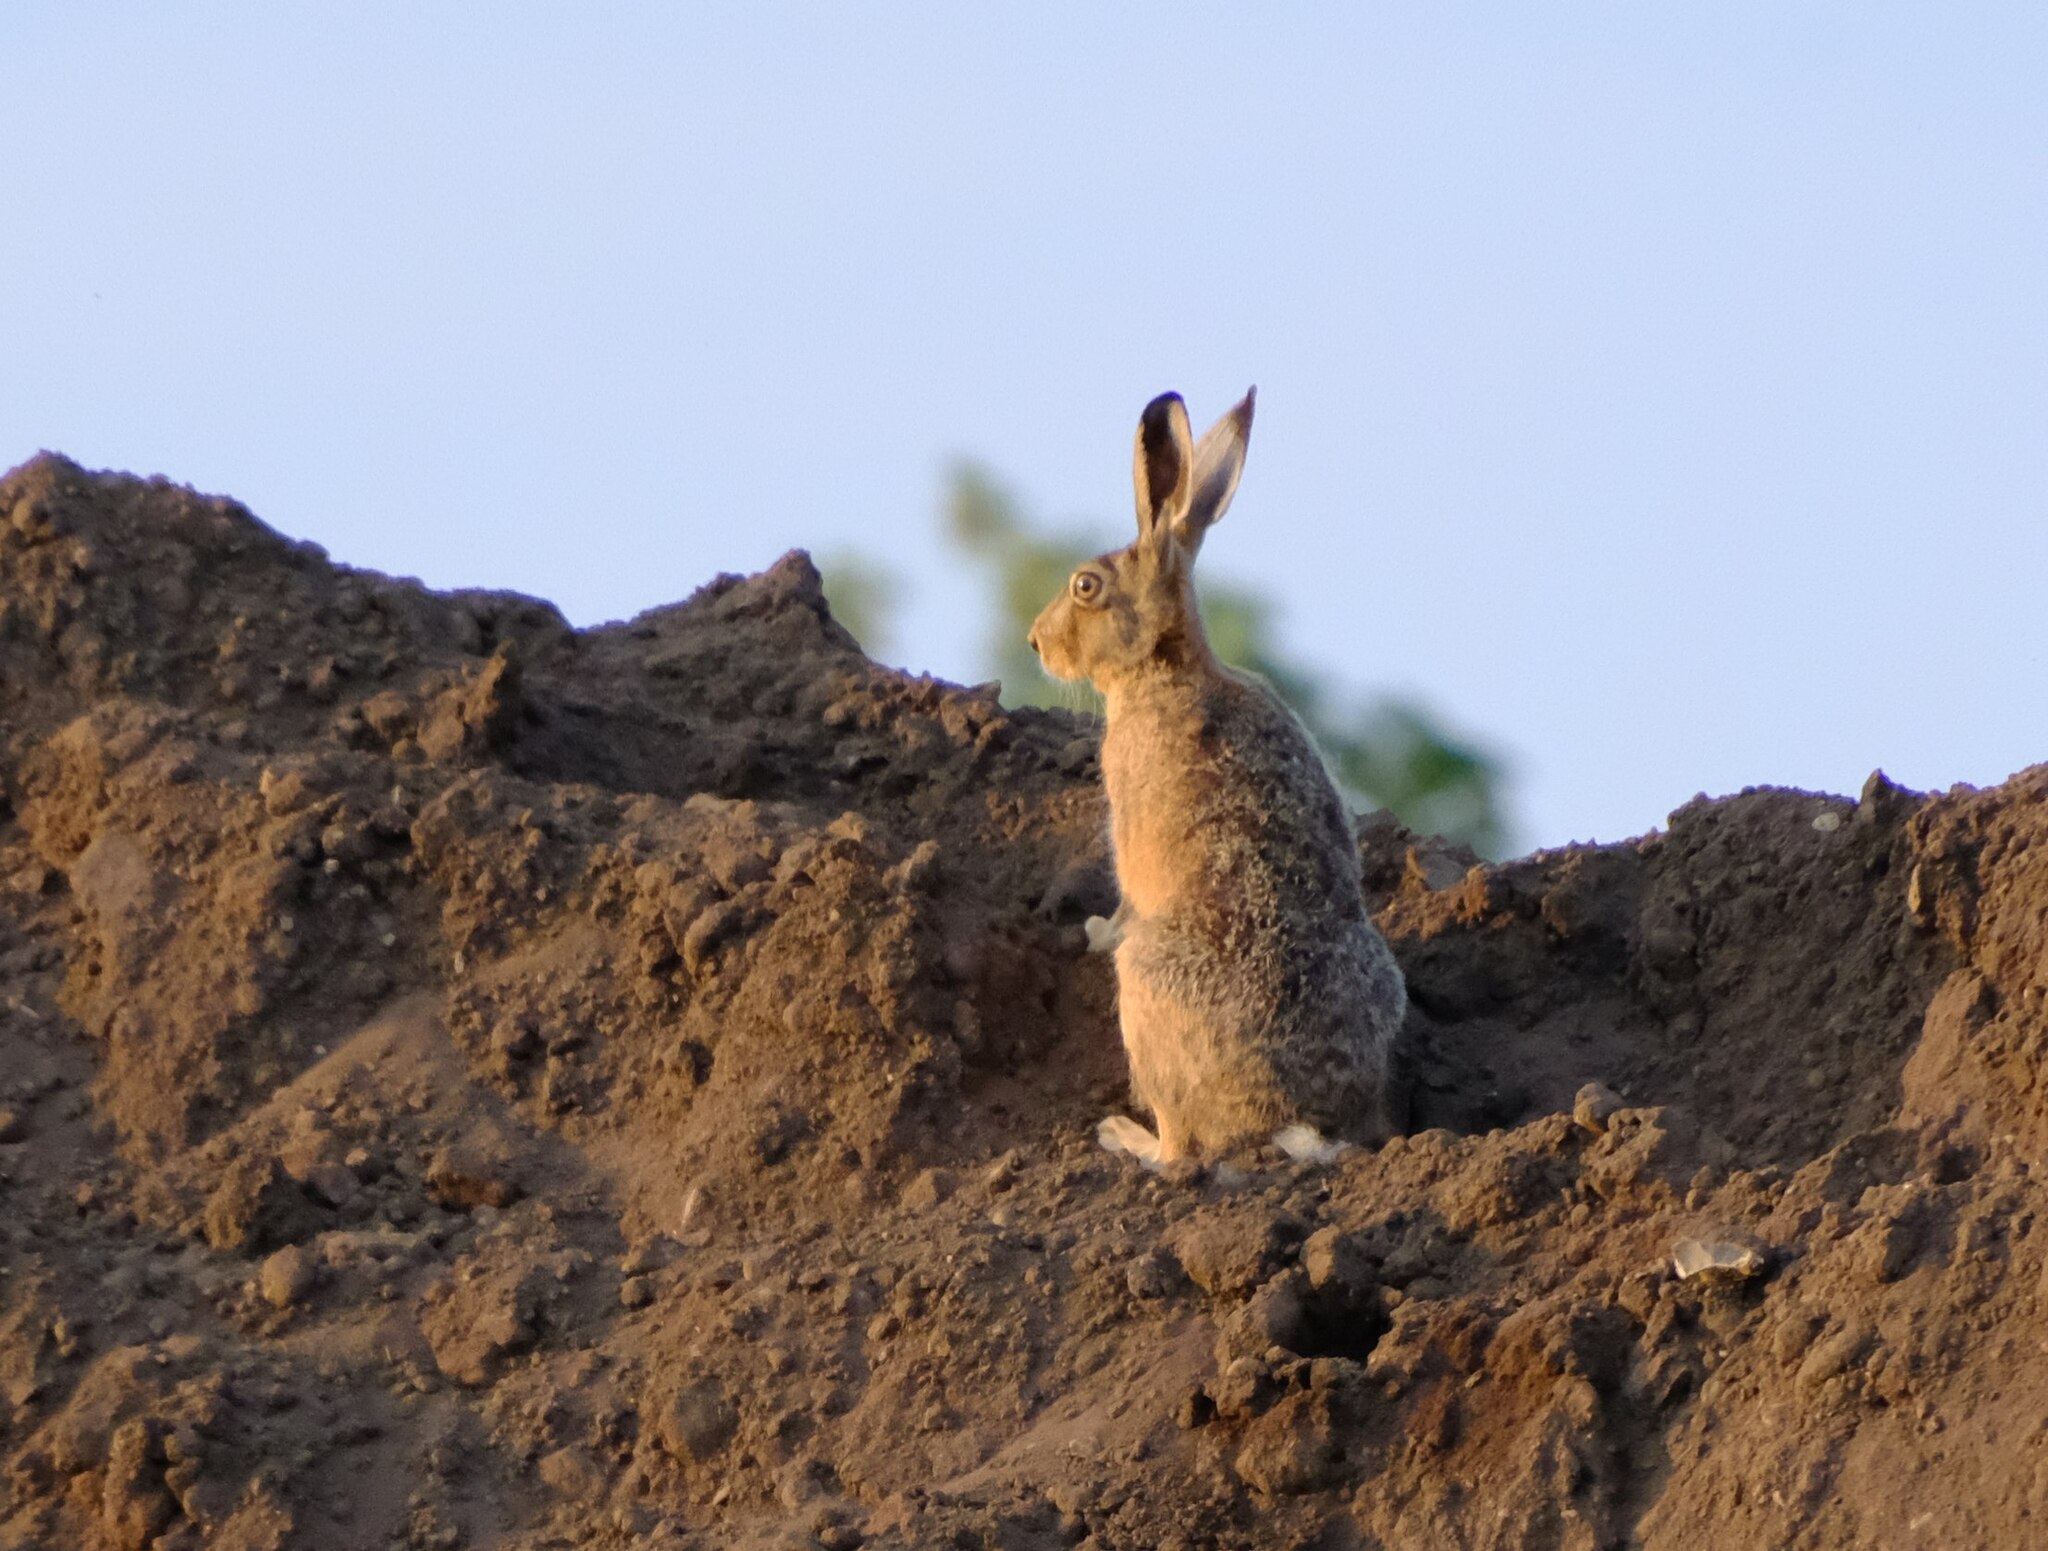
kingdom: Animalia
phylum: Chordata
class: Mammalia
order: Lagomorpha
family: Leporidae
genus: Lepus
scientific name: Lepus europaeus
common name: European hare
